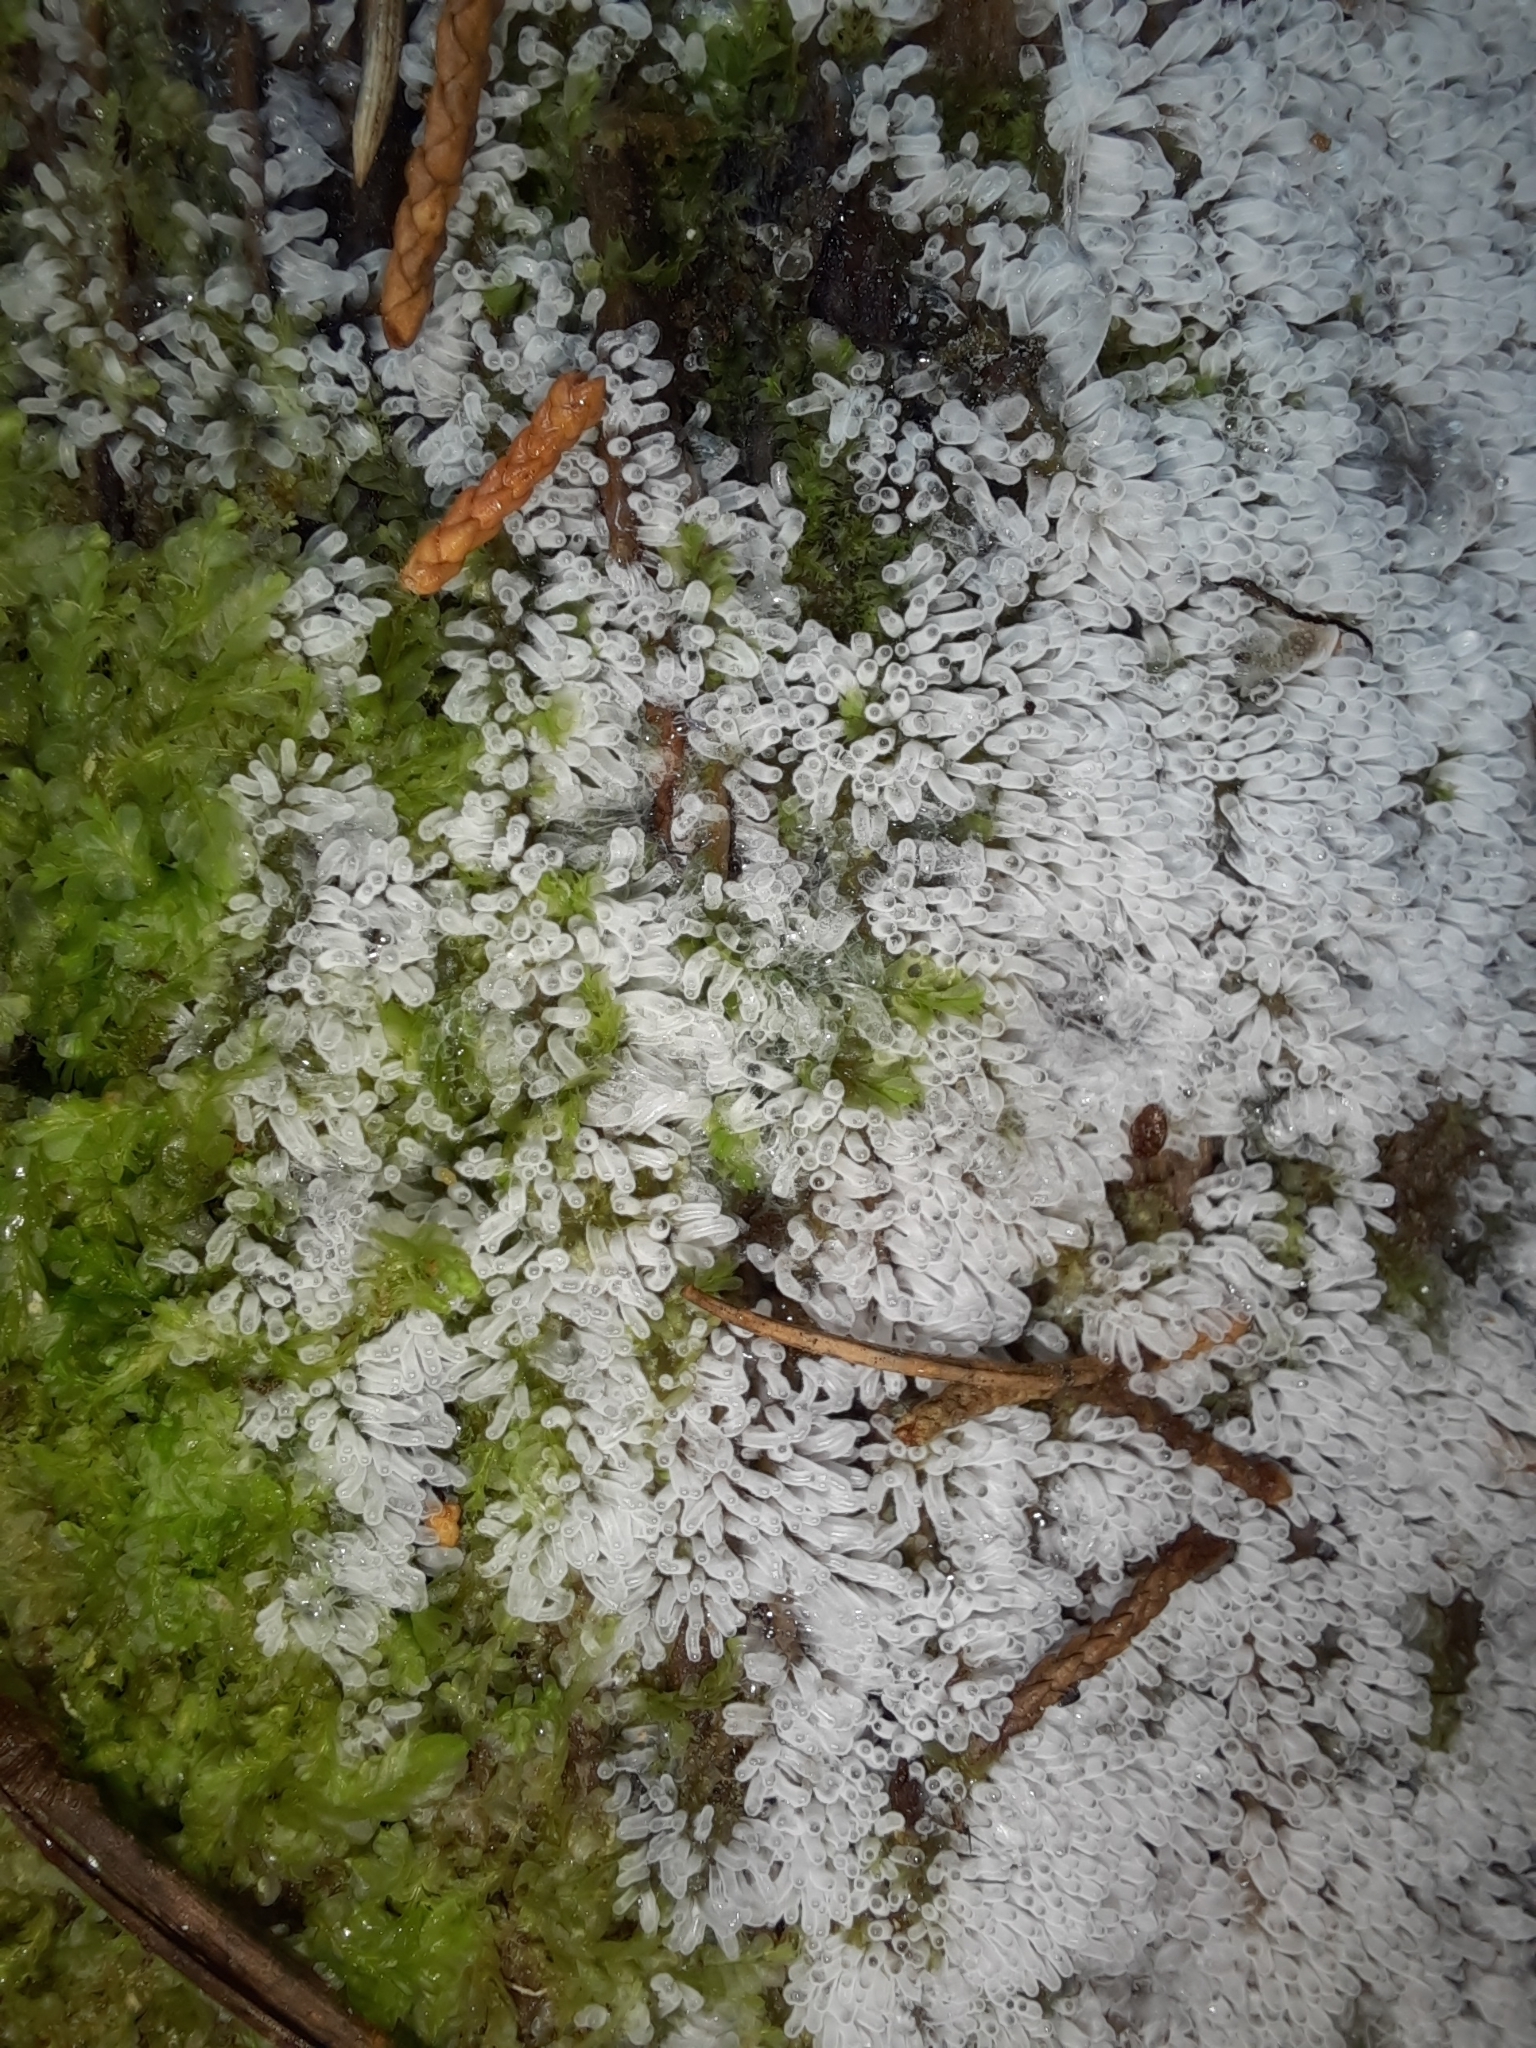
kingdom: Protozoa
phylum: Mycetozoa
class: Protosteliomycetes
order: Ceratiomyxales
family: Ceratiomyxaceae
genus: Ceratiomyxa
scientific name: Ceratiomyxa fruticulosa
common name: Honeycomb coral slime mold
